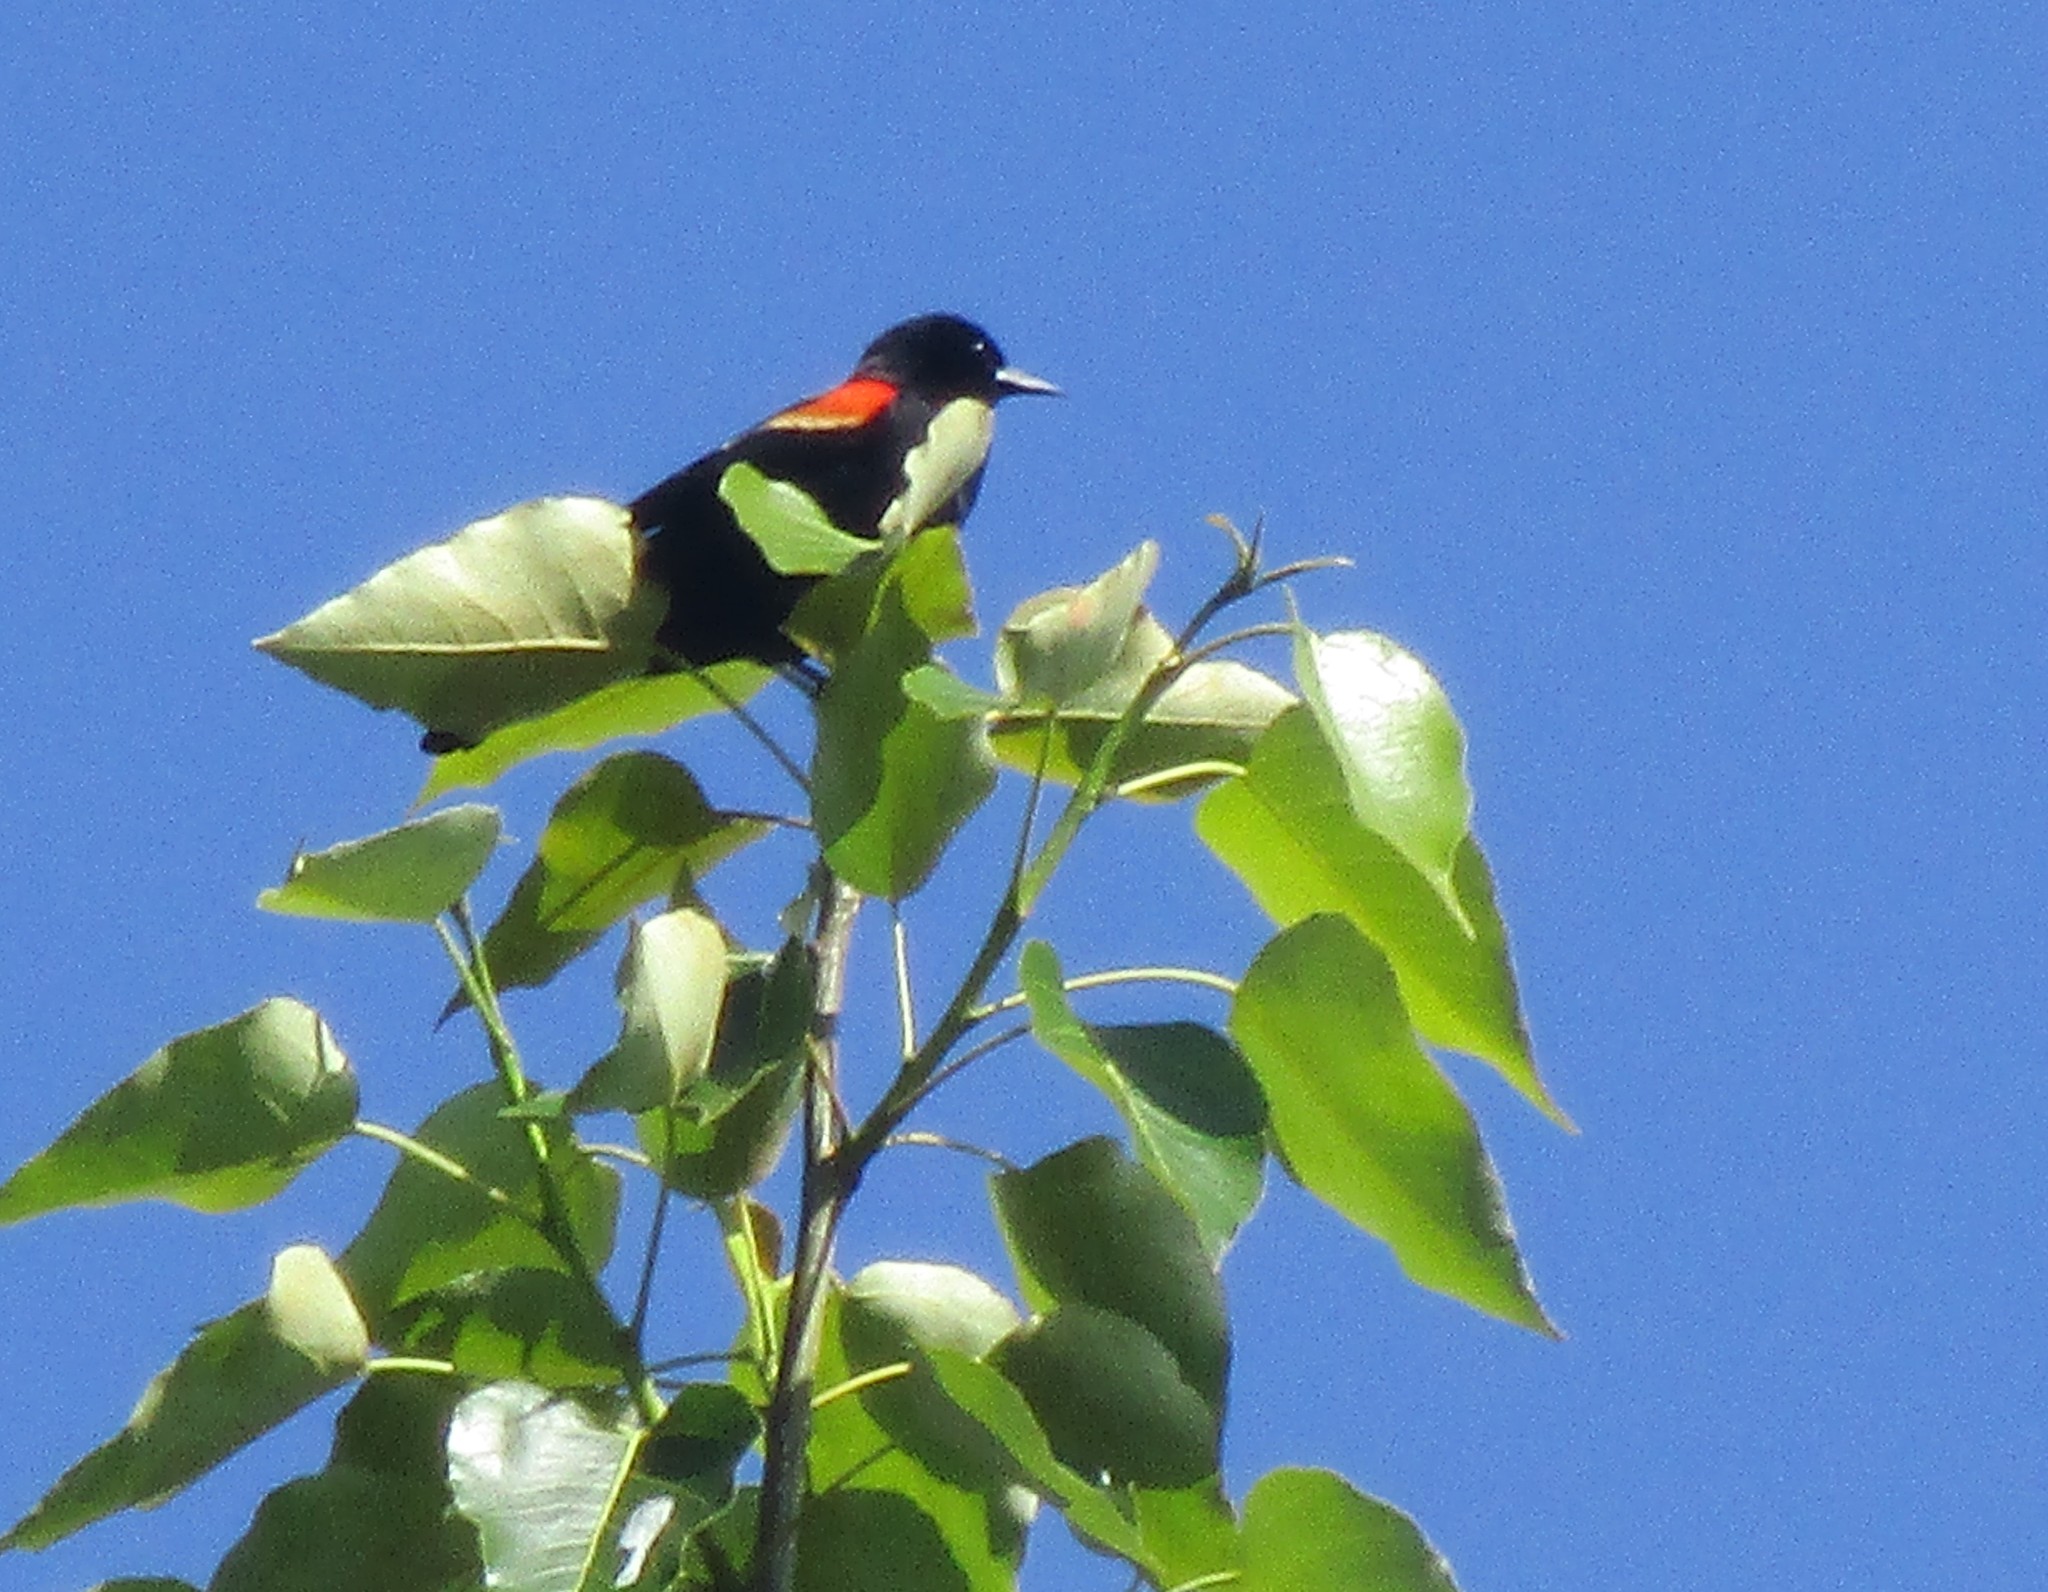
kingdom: Animalia
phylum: Chordata
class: Aves
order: Passeriformes
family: Icteridae
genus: Agelaius
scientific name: Agelaius phoeniceus
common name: Red-winged blackbird
